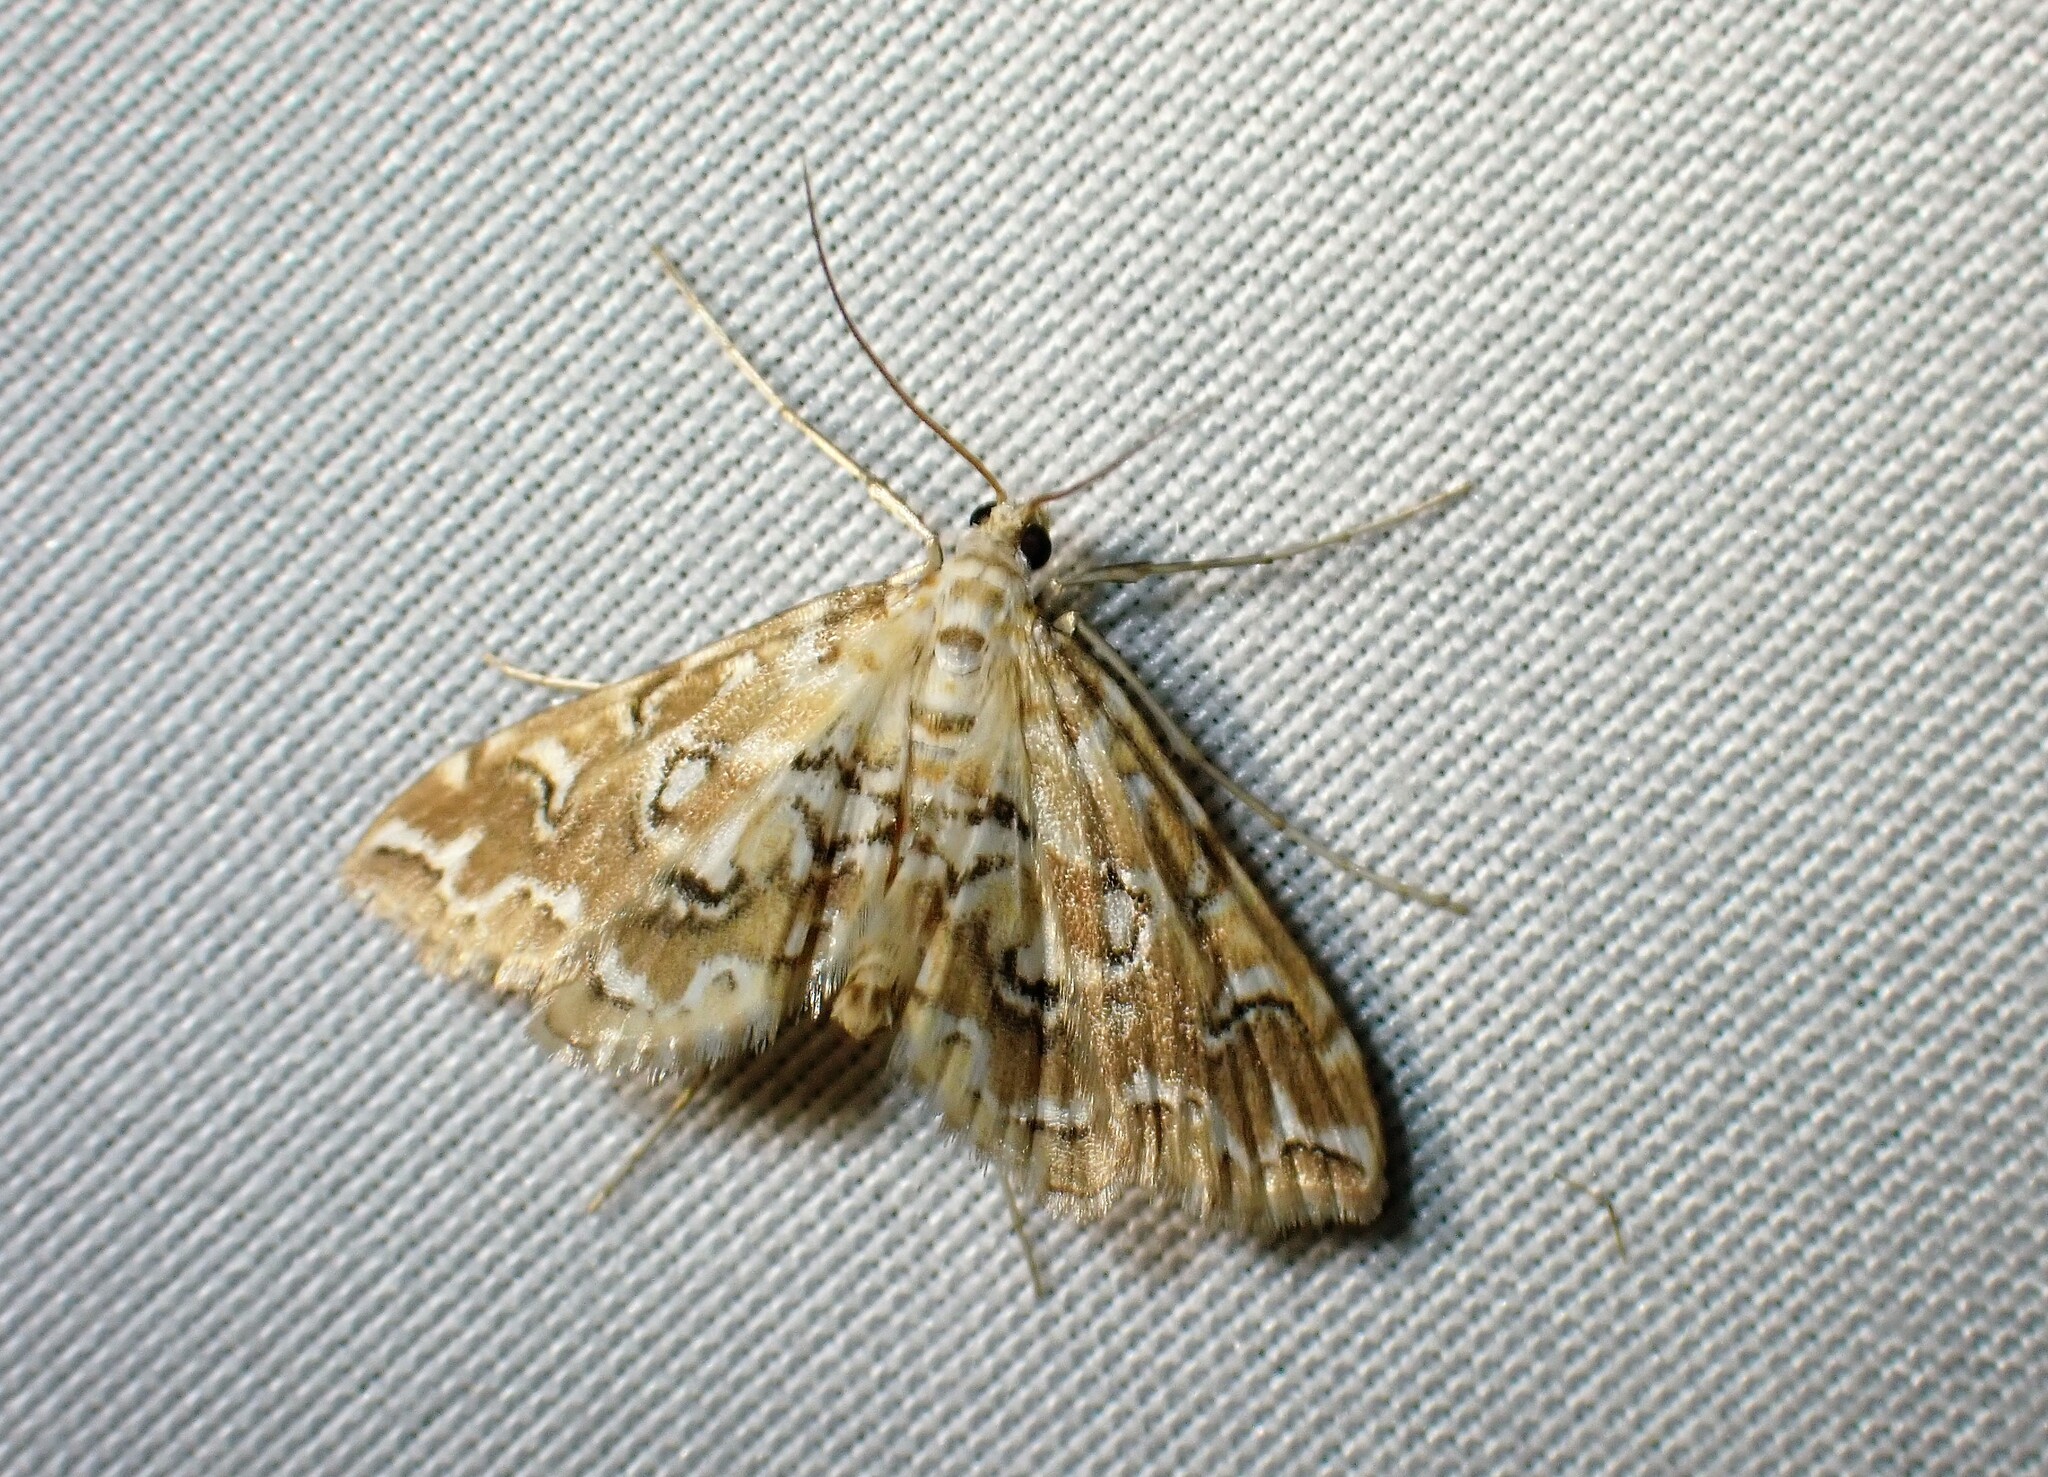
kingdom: Animalia
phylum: Arthropoda
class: Insecta
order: Lepidoptera
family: Crambidae
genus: Elophila
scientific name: Elophila icciusalis
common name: Pondside pyralid moth
